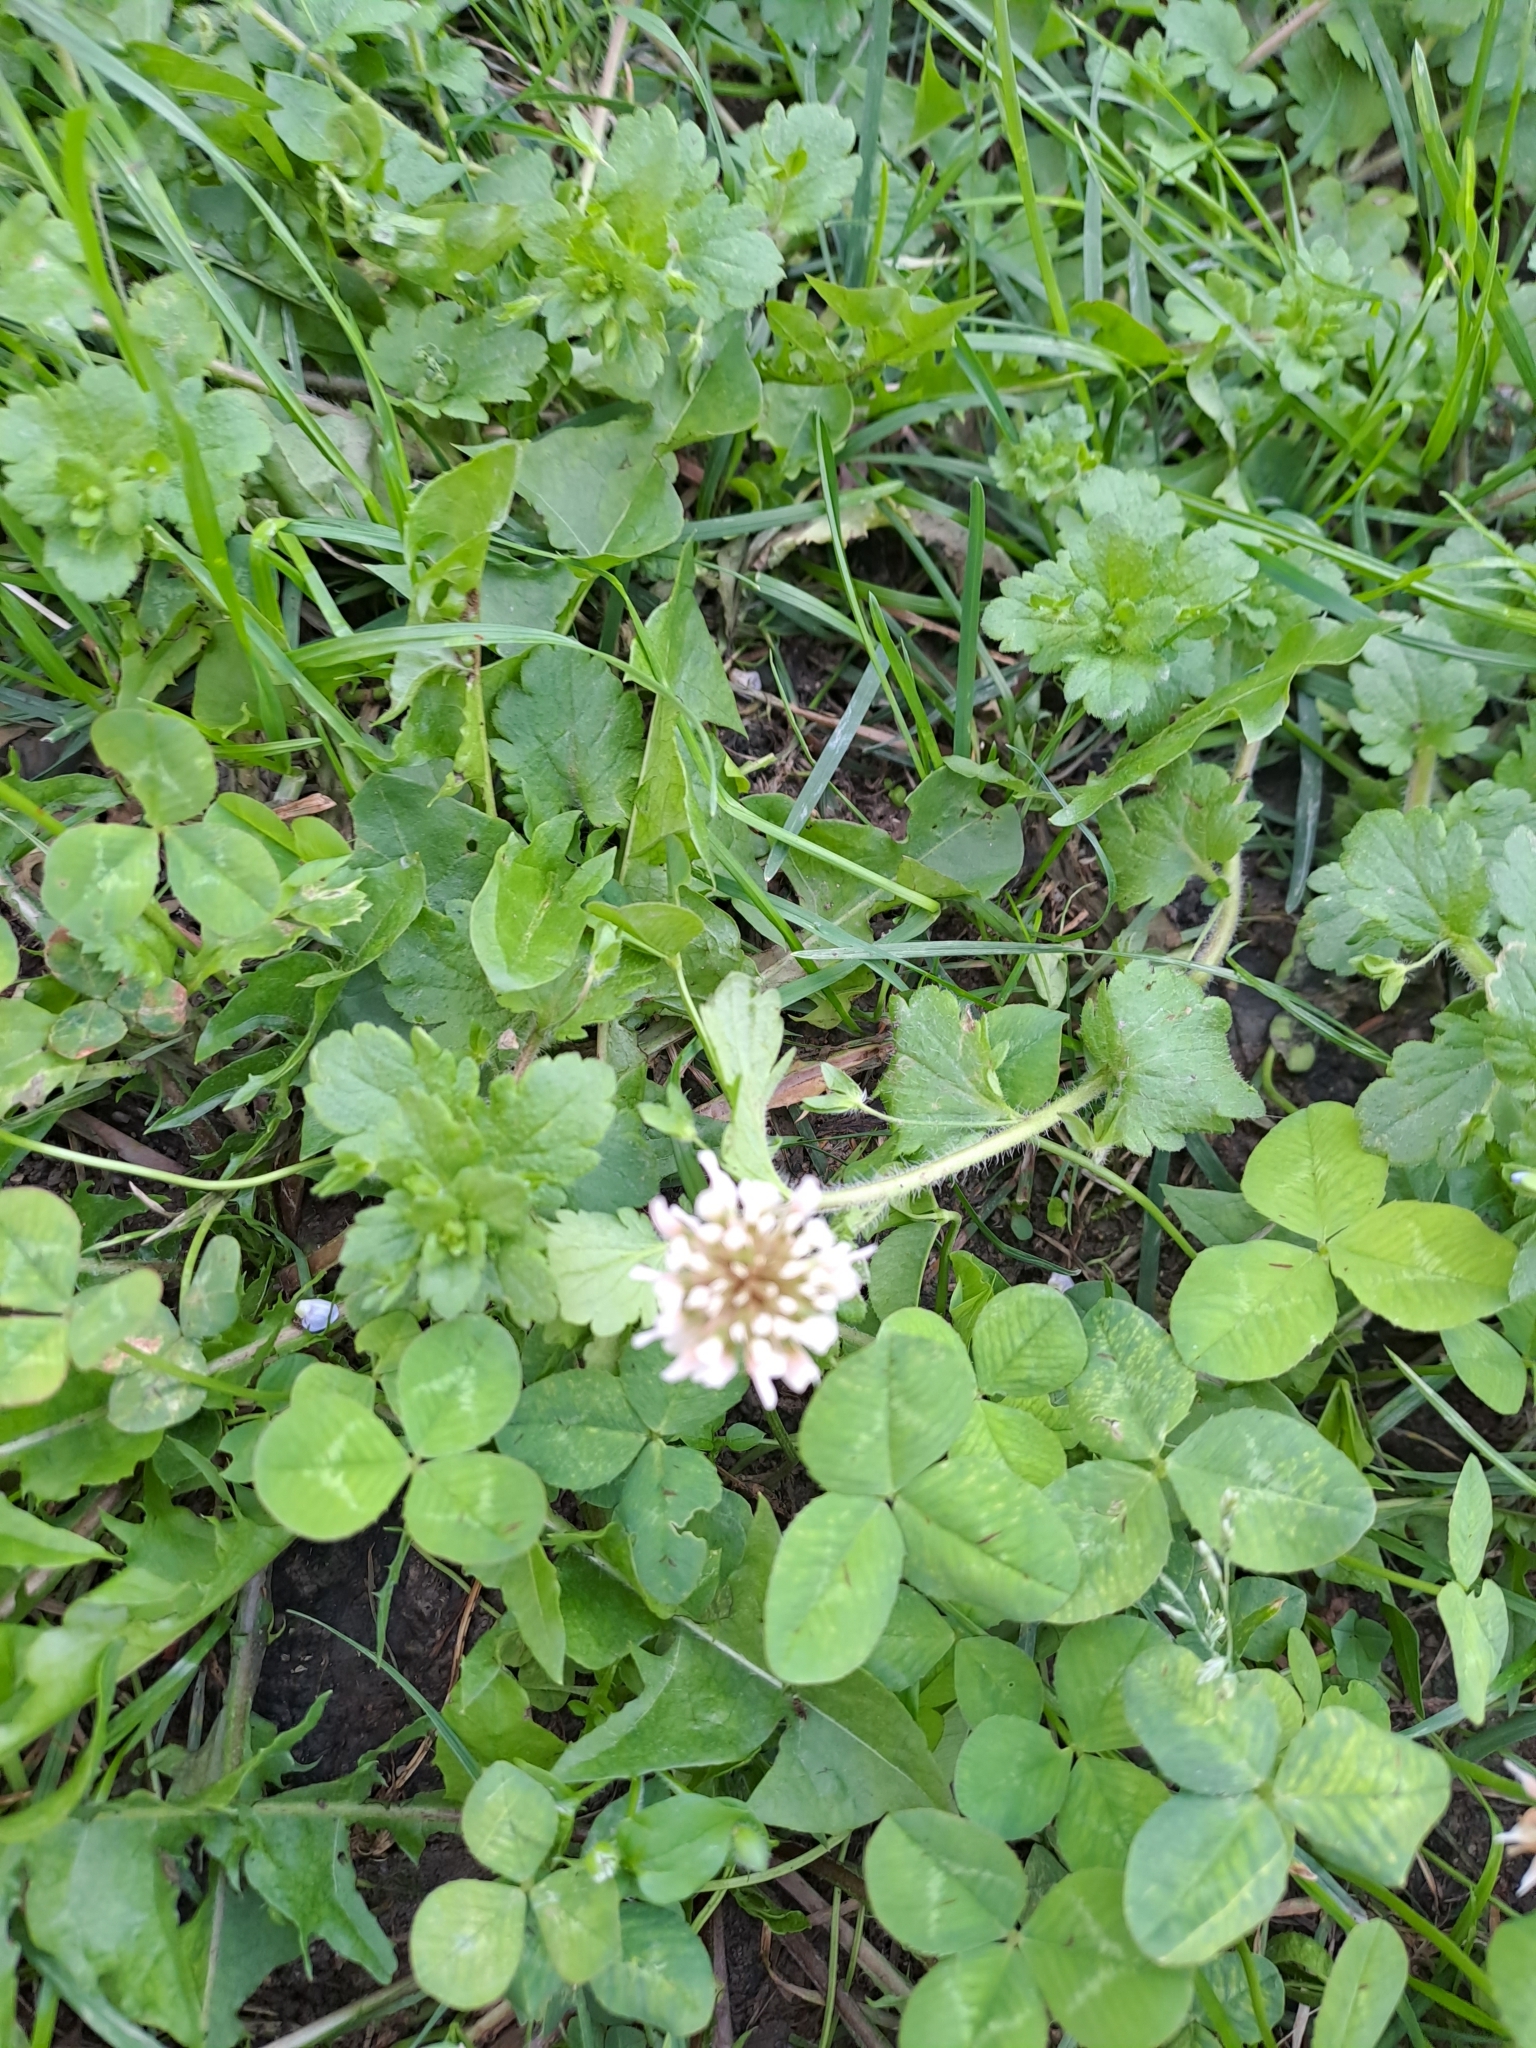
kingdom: Plantae
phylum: Tracheophyta
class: Magnoliopsida
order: Fabales
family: Fabaceae
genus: Trifolium
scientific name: Trifolium repens
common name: White clover
